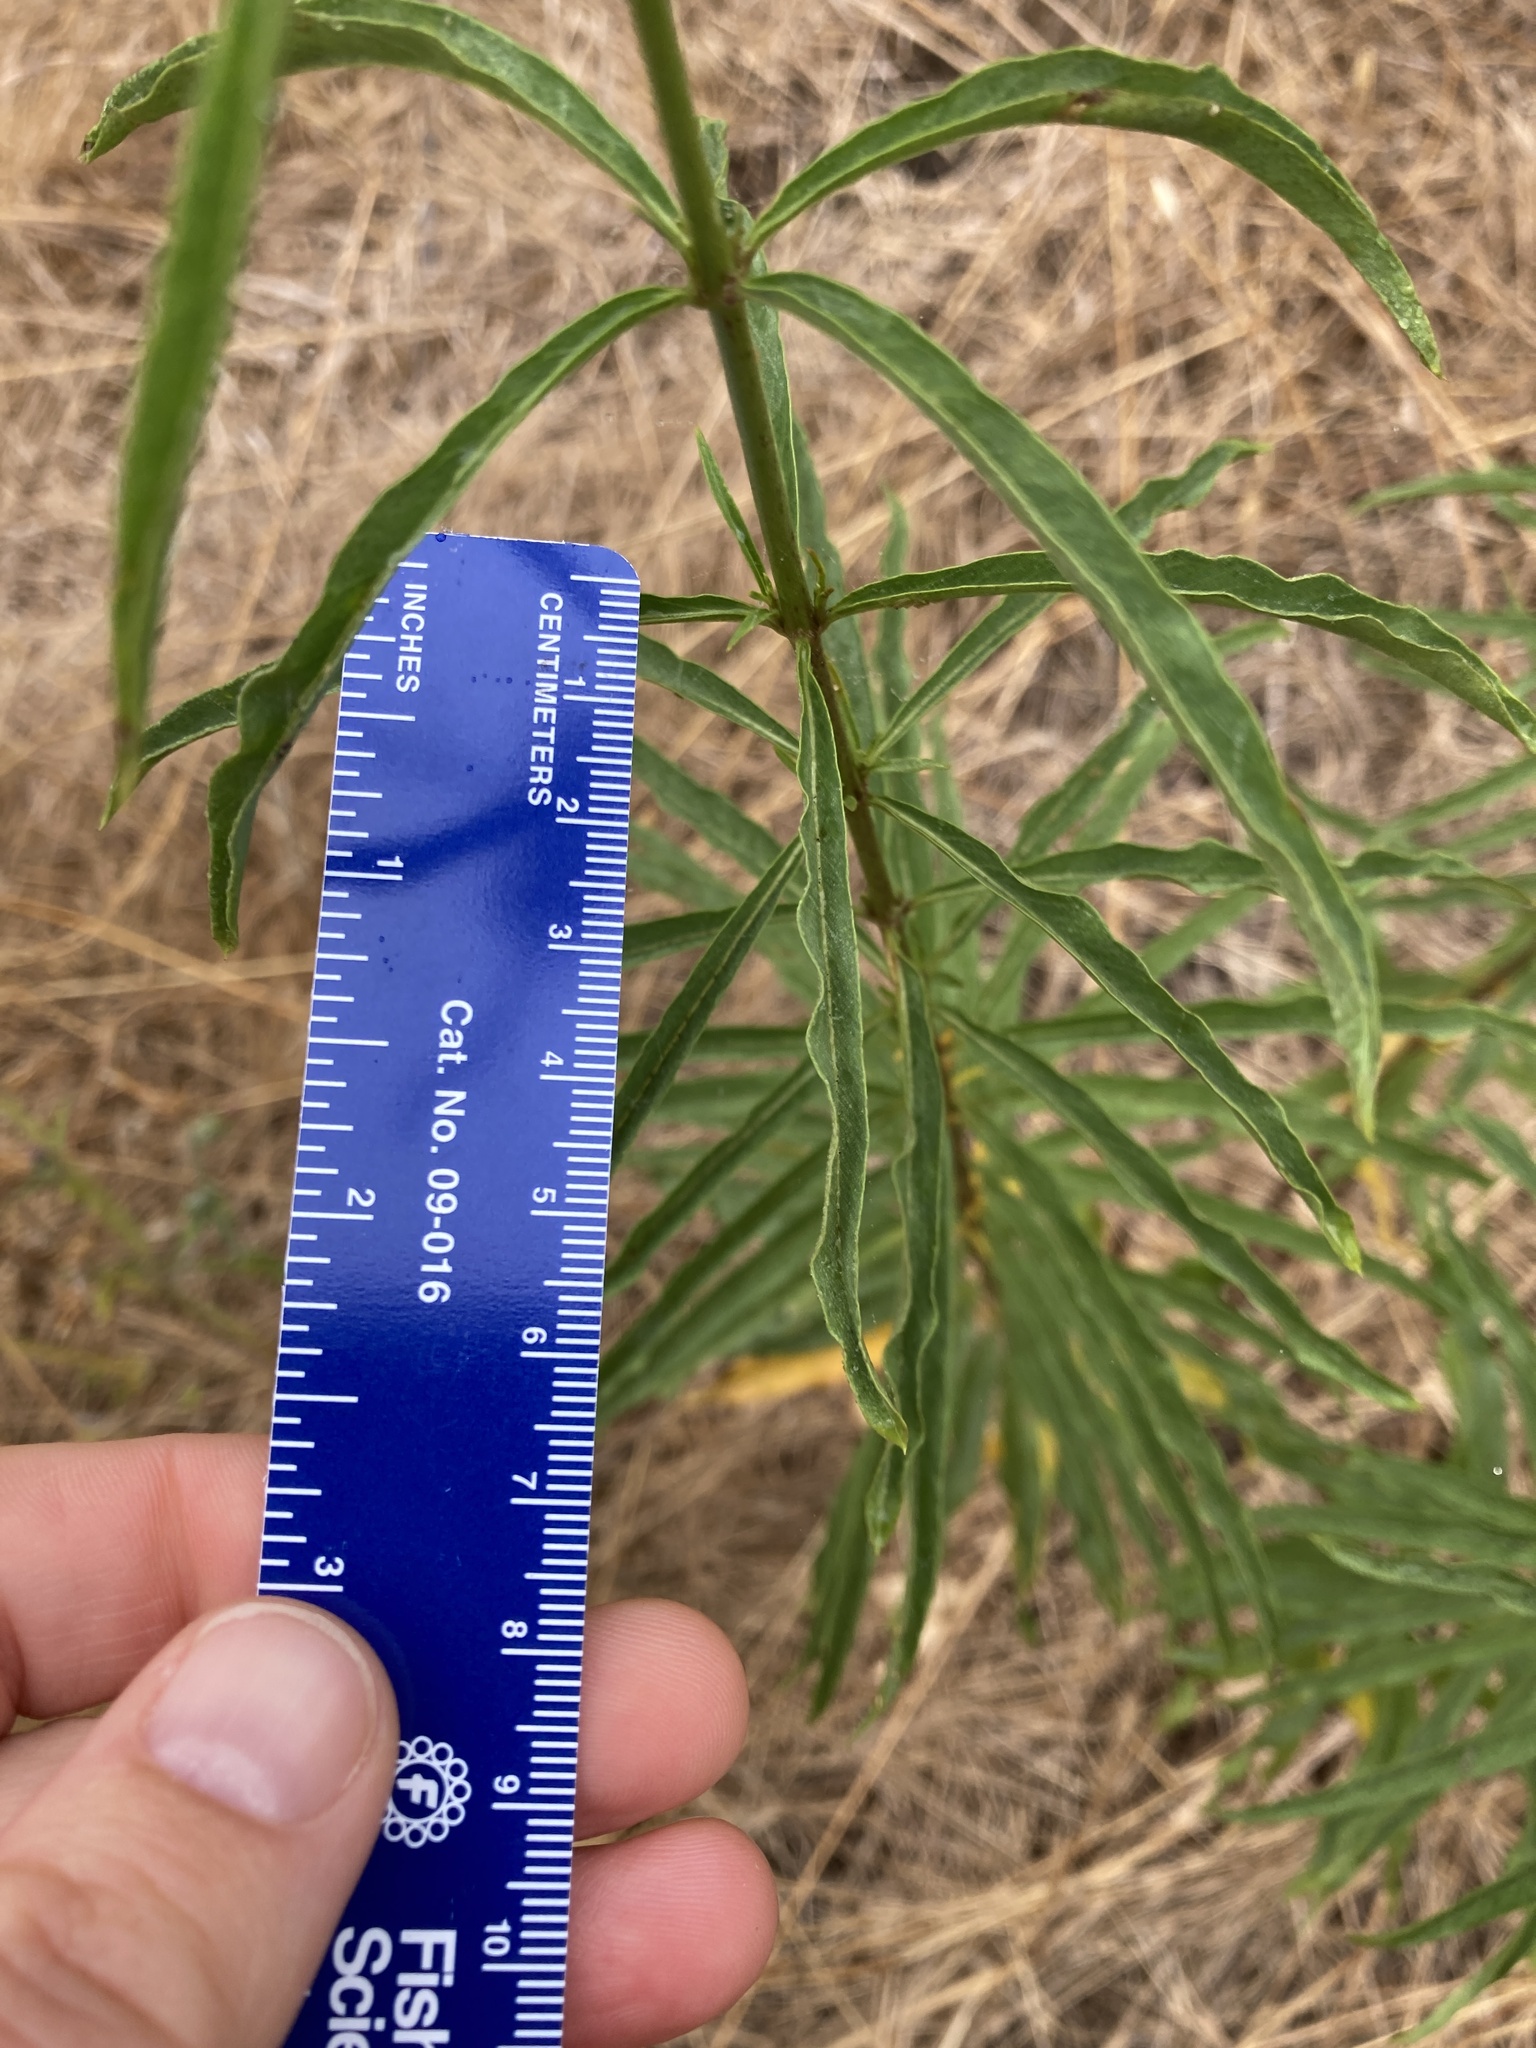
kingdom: Plantae
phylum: Tracheophyta
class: Magnoliopsida
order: Gentianales
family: Apocynaceae
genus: Asclepias
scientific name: Asclepias fascicularis
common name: Mexican milkweed
